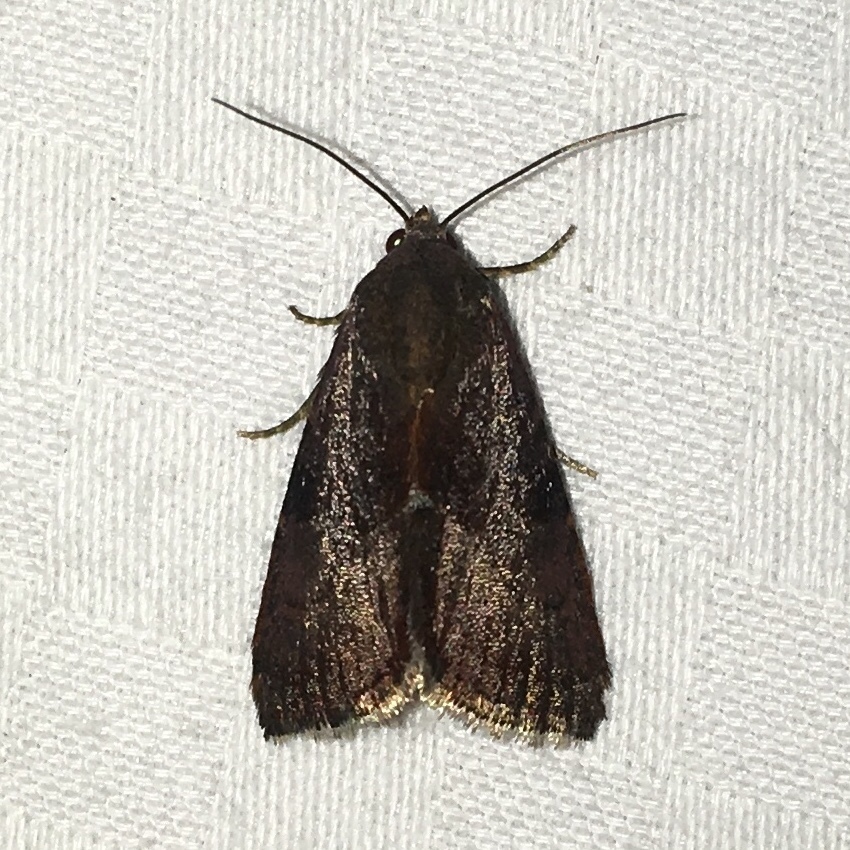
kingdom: Animalia
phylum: Arthropoda
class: Insecta
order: Lepidoptera
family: Noctuidae
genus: Galgula
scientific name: Galgula partita
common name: Wedgeling
